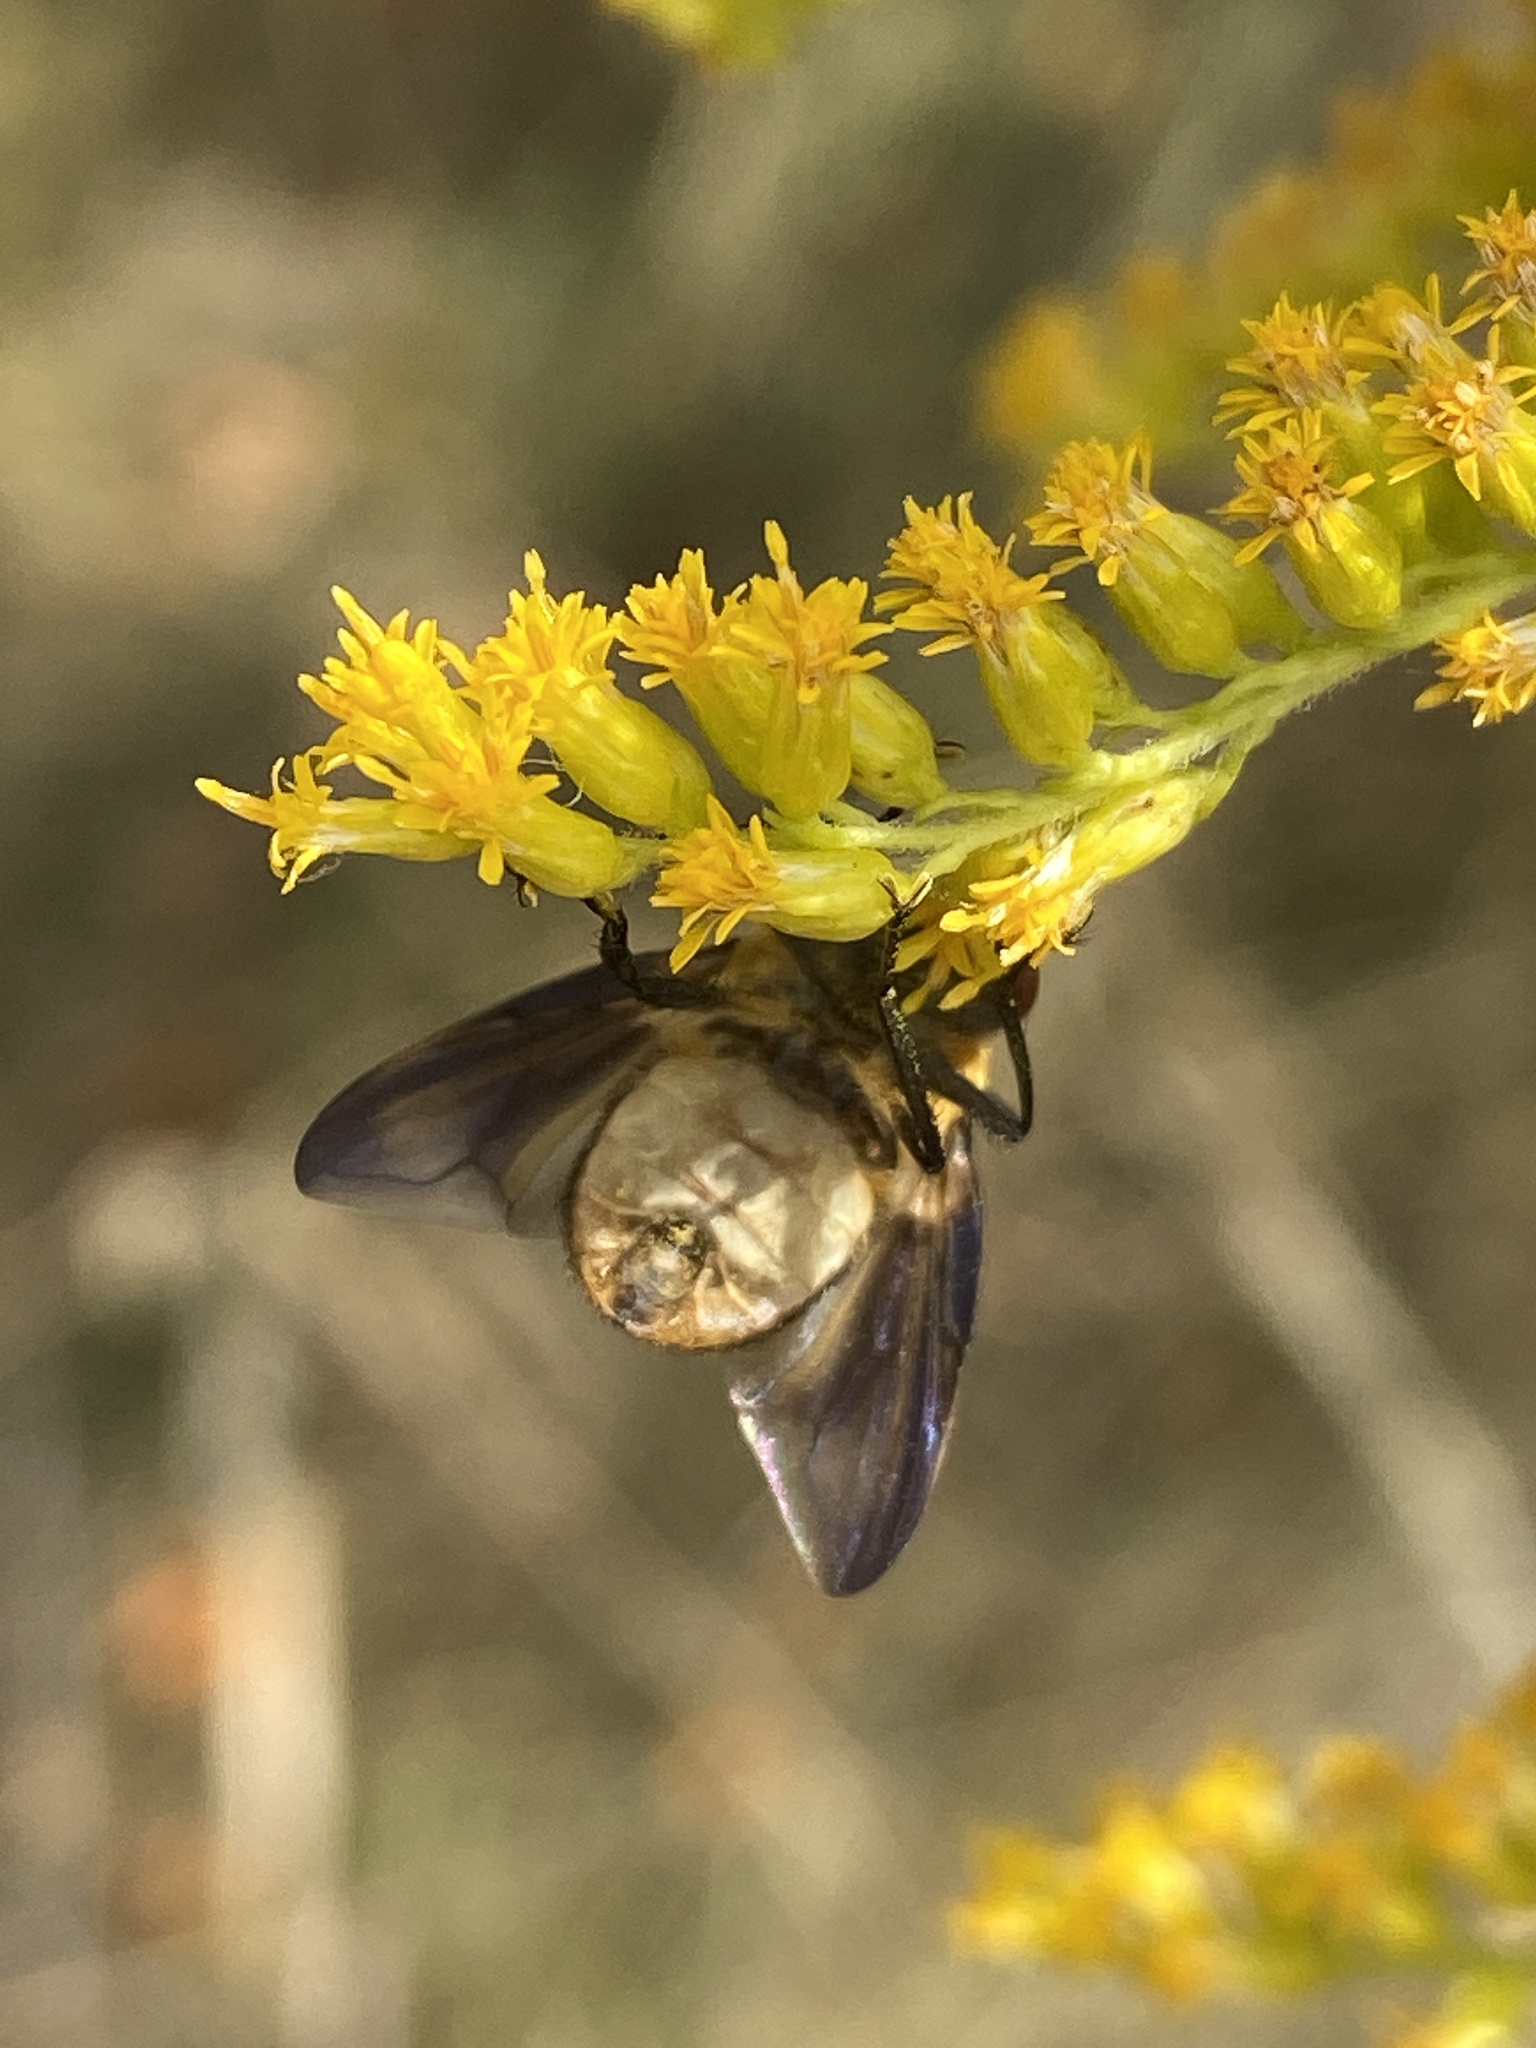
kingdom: Animalia
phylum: Arthropoda
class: Insecta
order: Diptera
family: Tachinidae
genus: Phasia
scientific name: Phasia hemiptera
